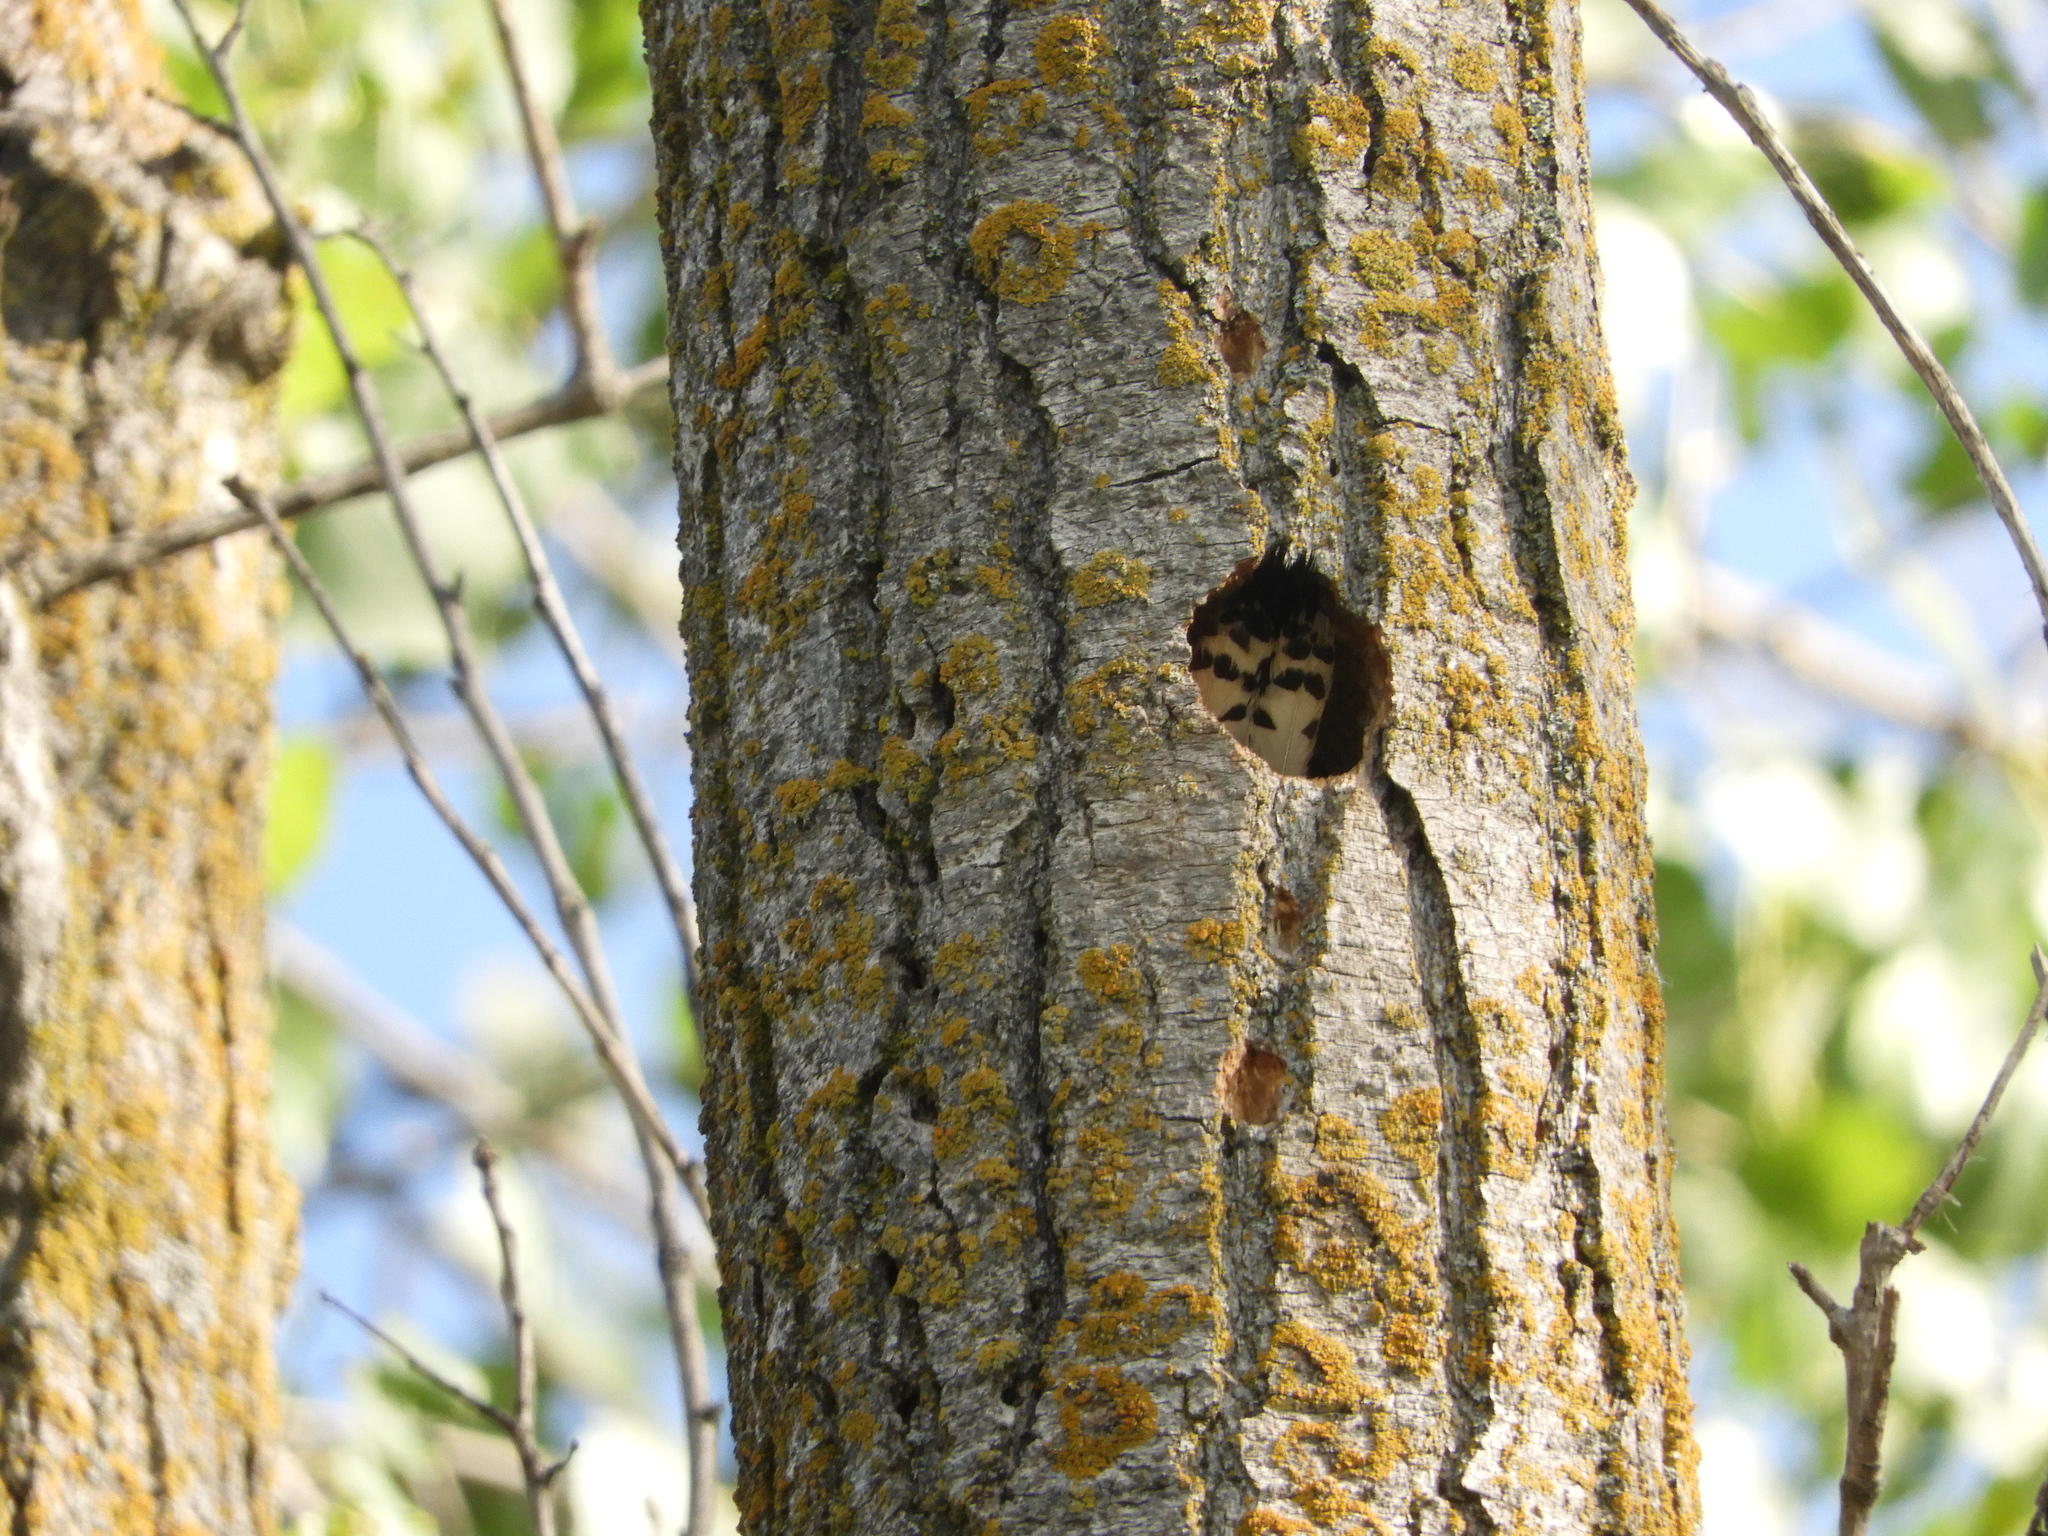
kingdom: Animalia
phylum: Chordata
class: Aves
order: Piciformes
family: Picidae
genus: Dryobates
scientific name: Dryobates pubescens
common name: Downy woodpecker
